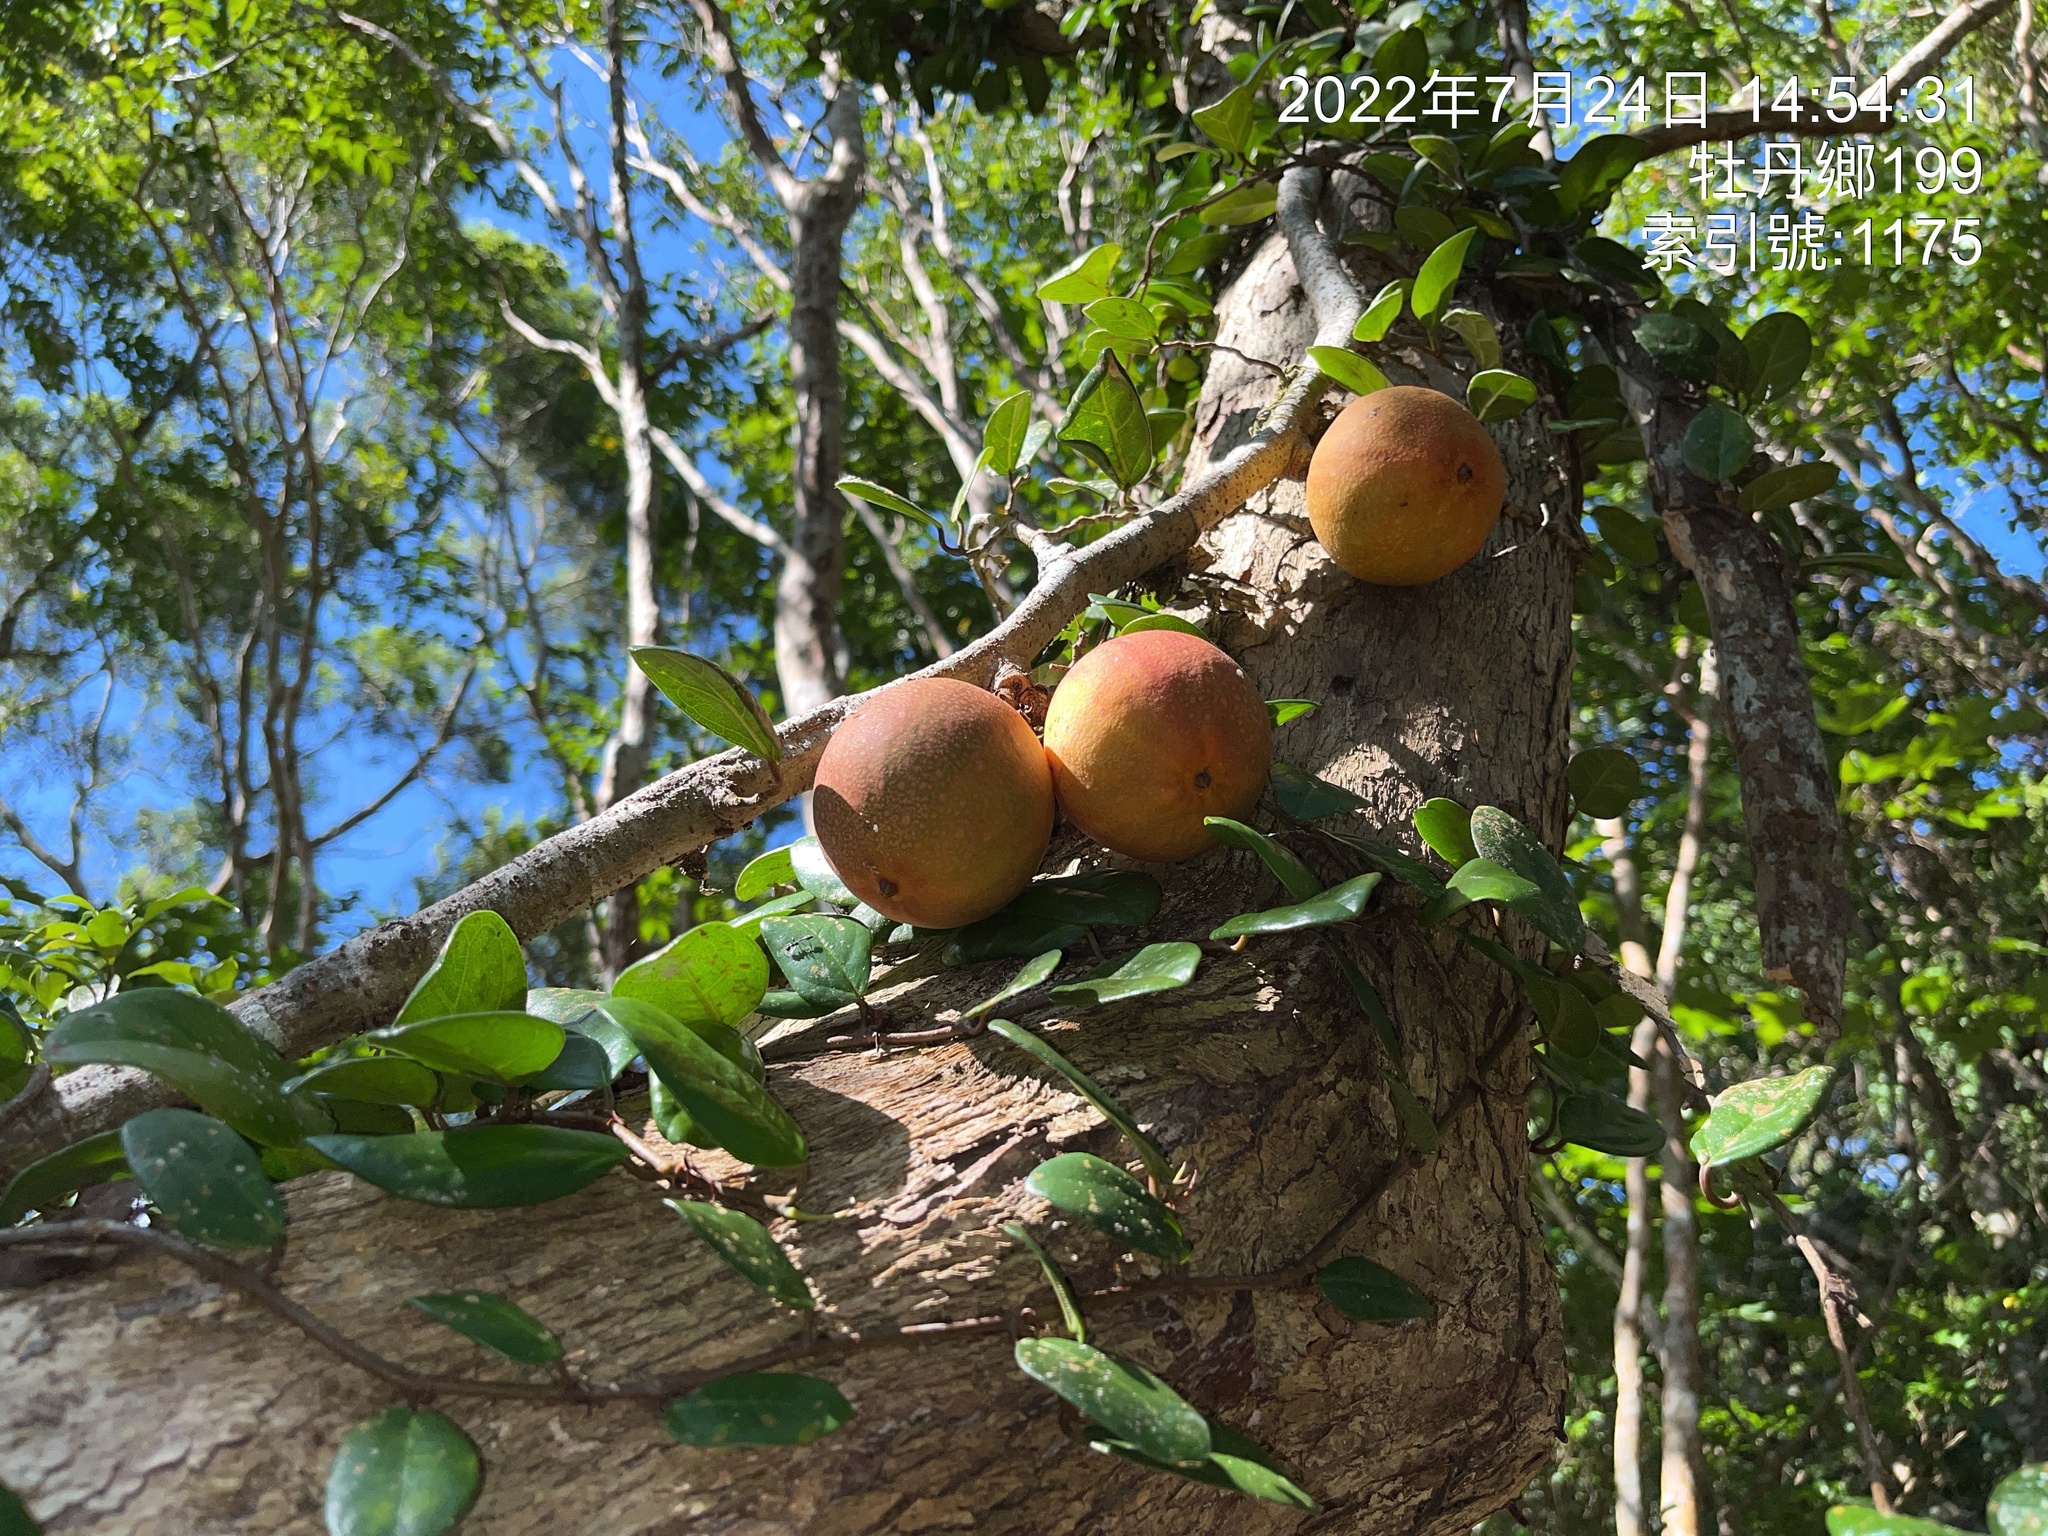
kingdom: Plantae
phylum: Tracheophyta
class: Magnoliopsida
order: Rosales
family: Moraceae
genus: Ficus
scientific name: Ficus punctata
